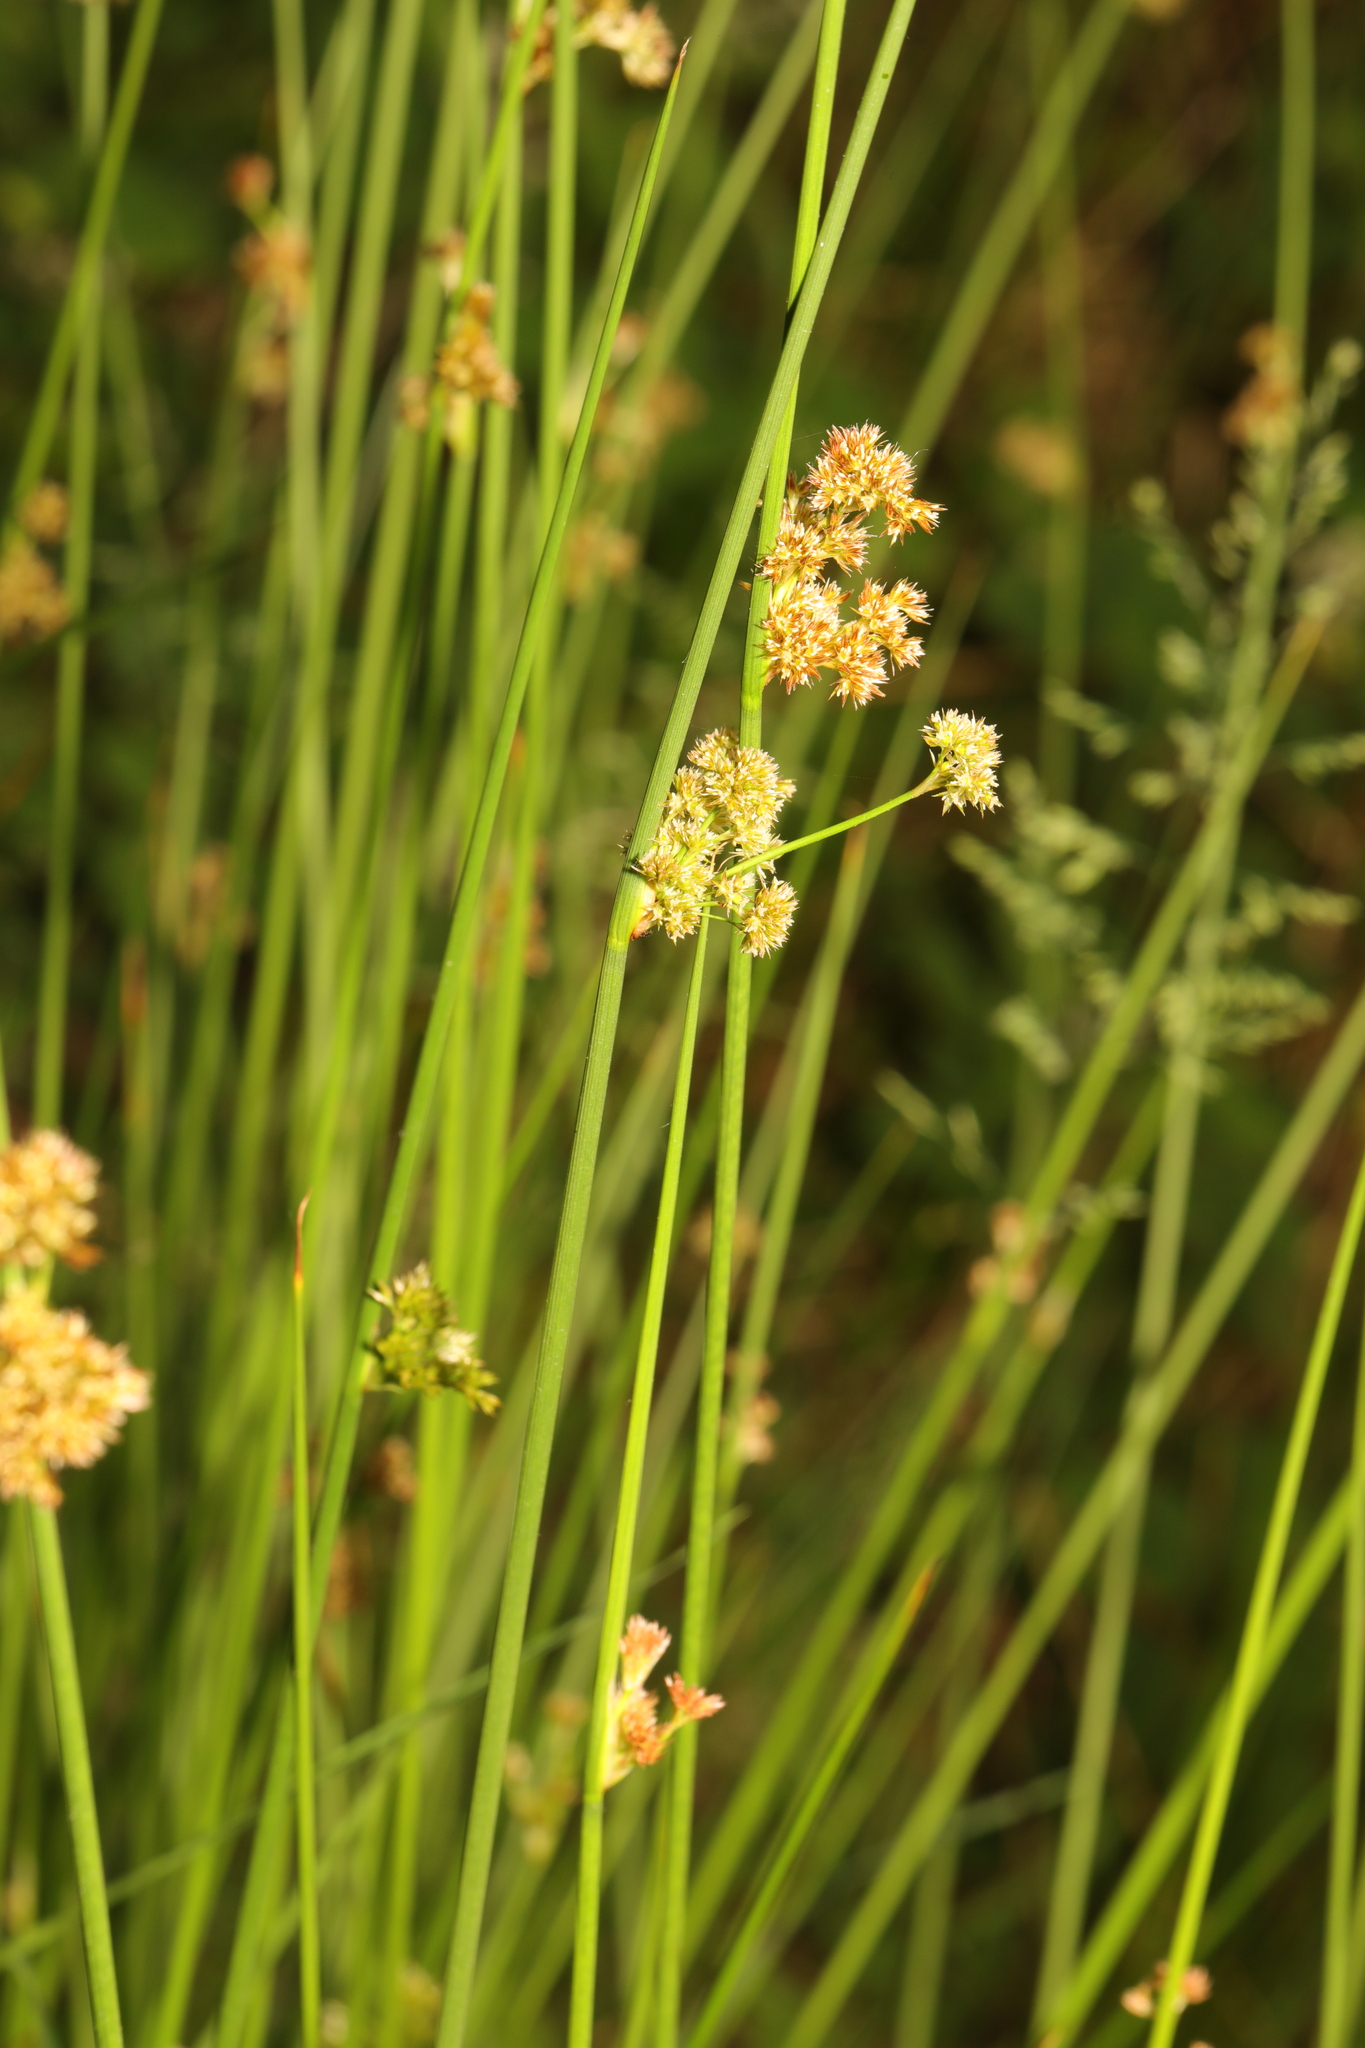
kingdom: Plantae
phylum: Tracheophyta
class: Liliopsida
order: Poales
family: Juncaceae
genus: Juncus
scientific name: Juncus effusus
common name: Soft rush
